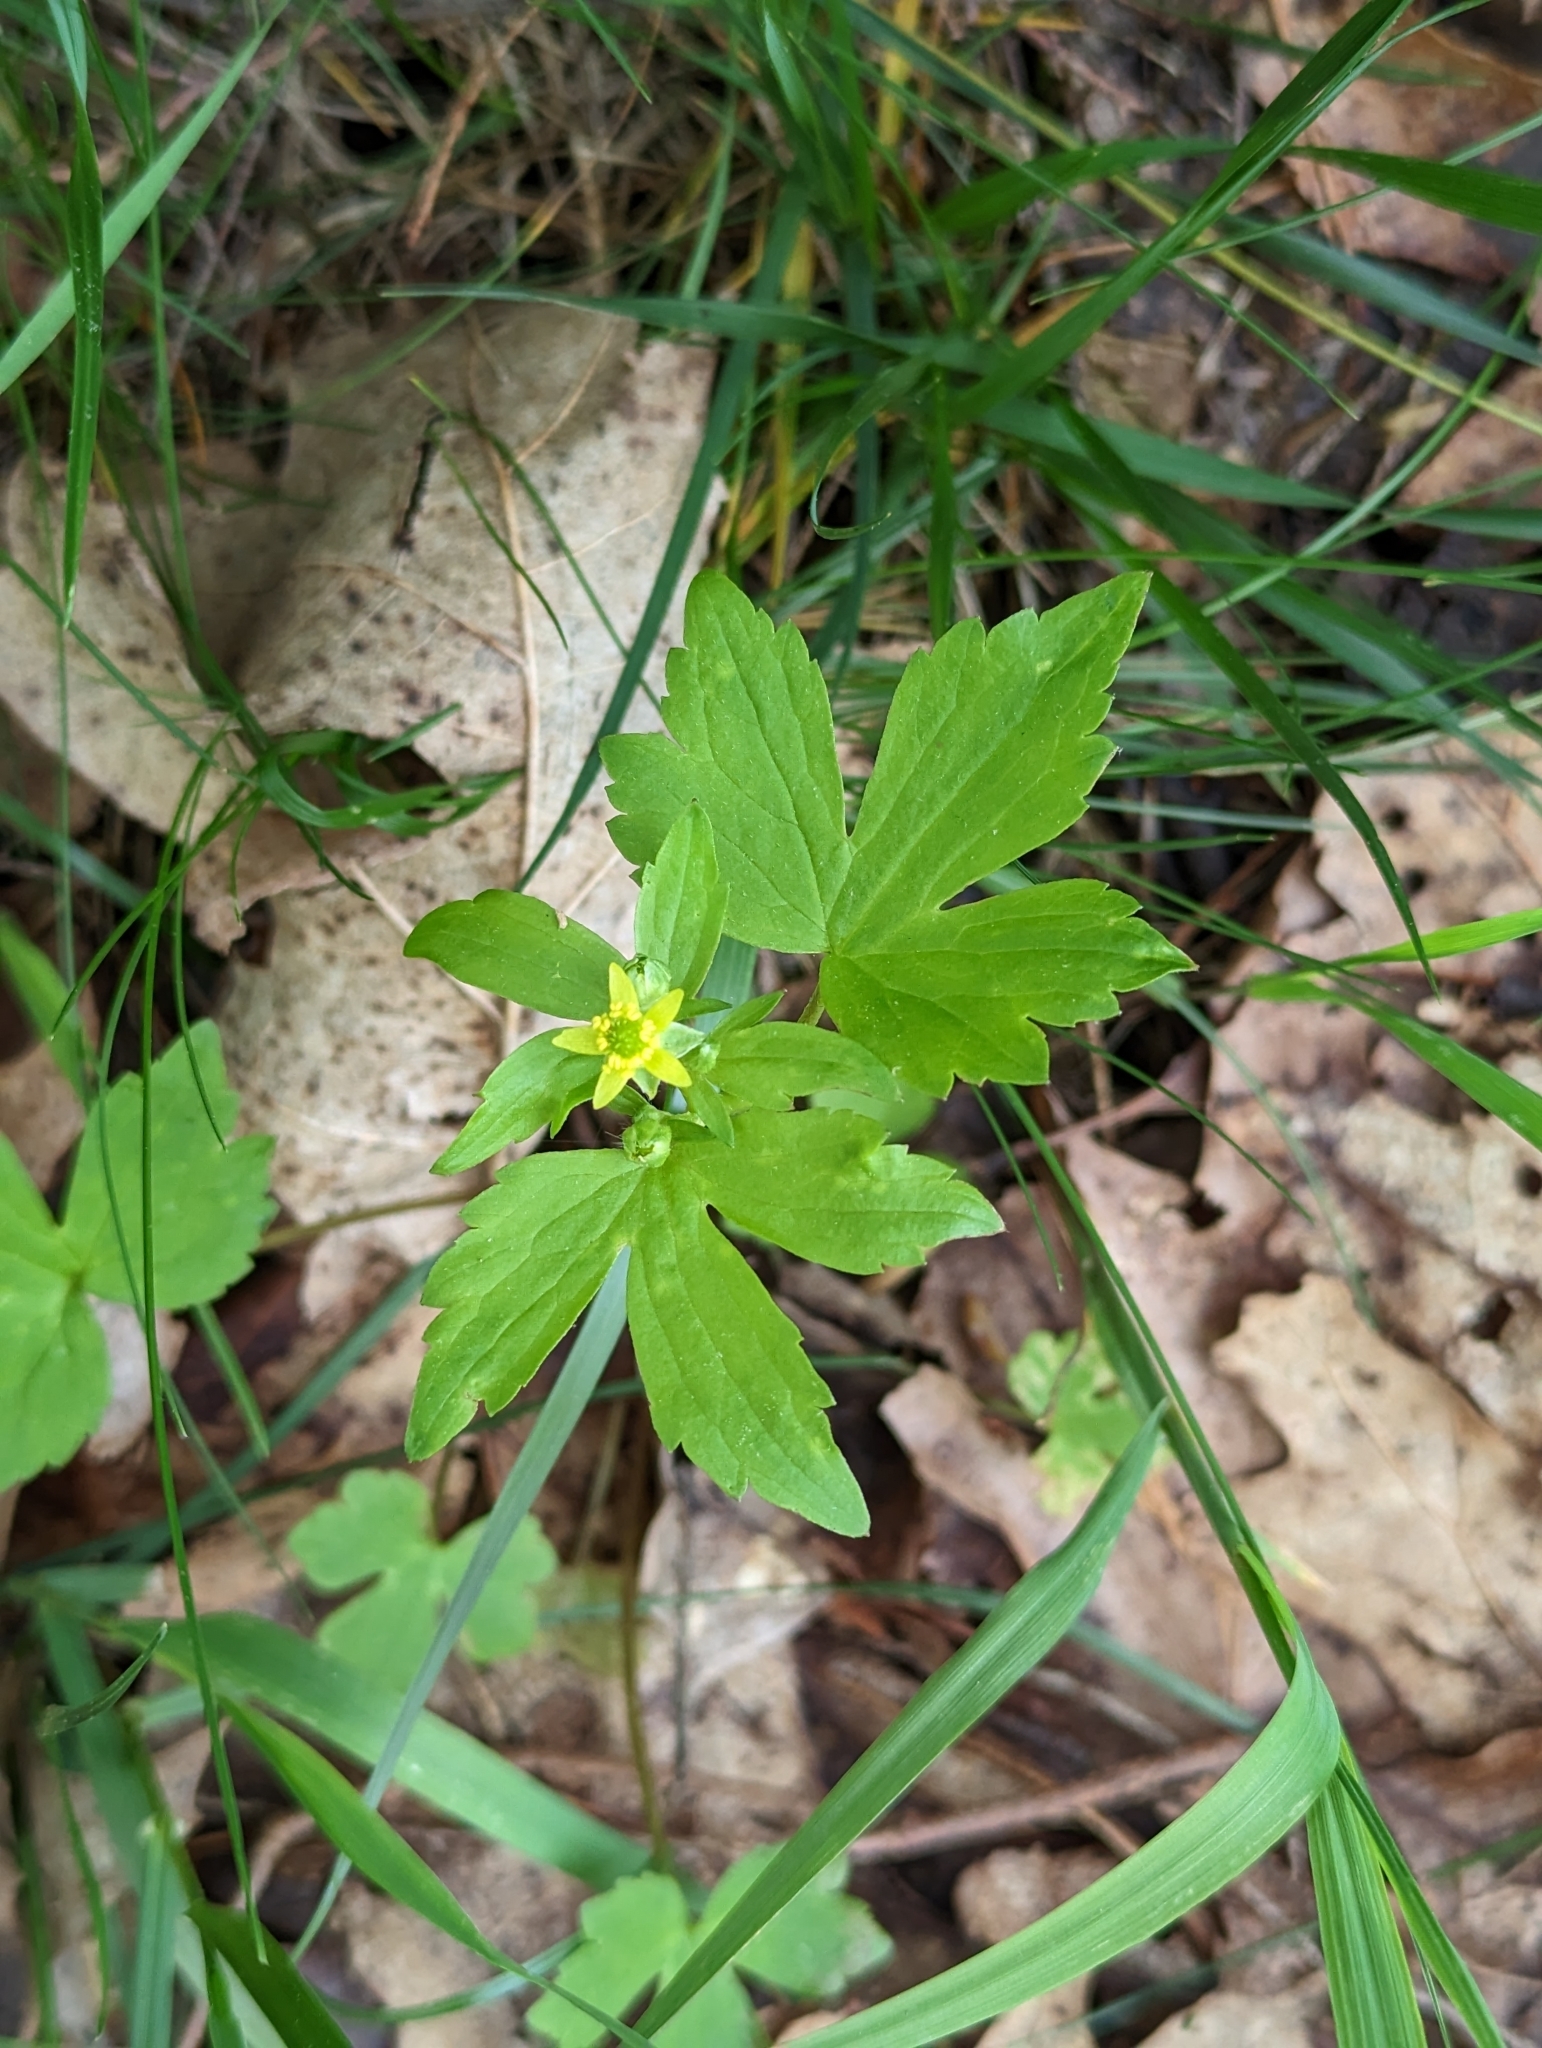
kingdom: Plantae
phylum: Tracheophyta
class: Magnoliopsida
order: Ranunculales
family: Ranunculaceae
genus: Ranunculus
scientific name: Ranunculus recurvatus
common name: Blisterwort
